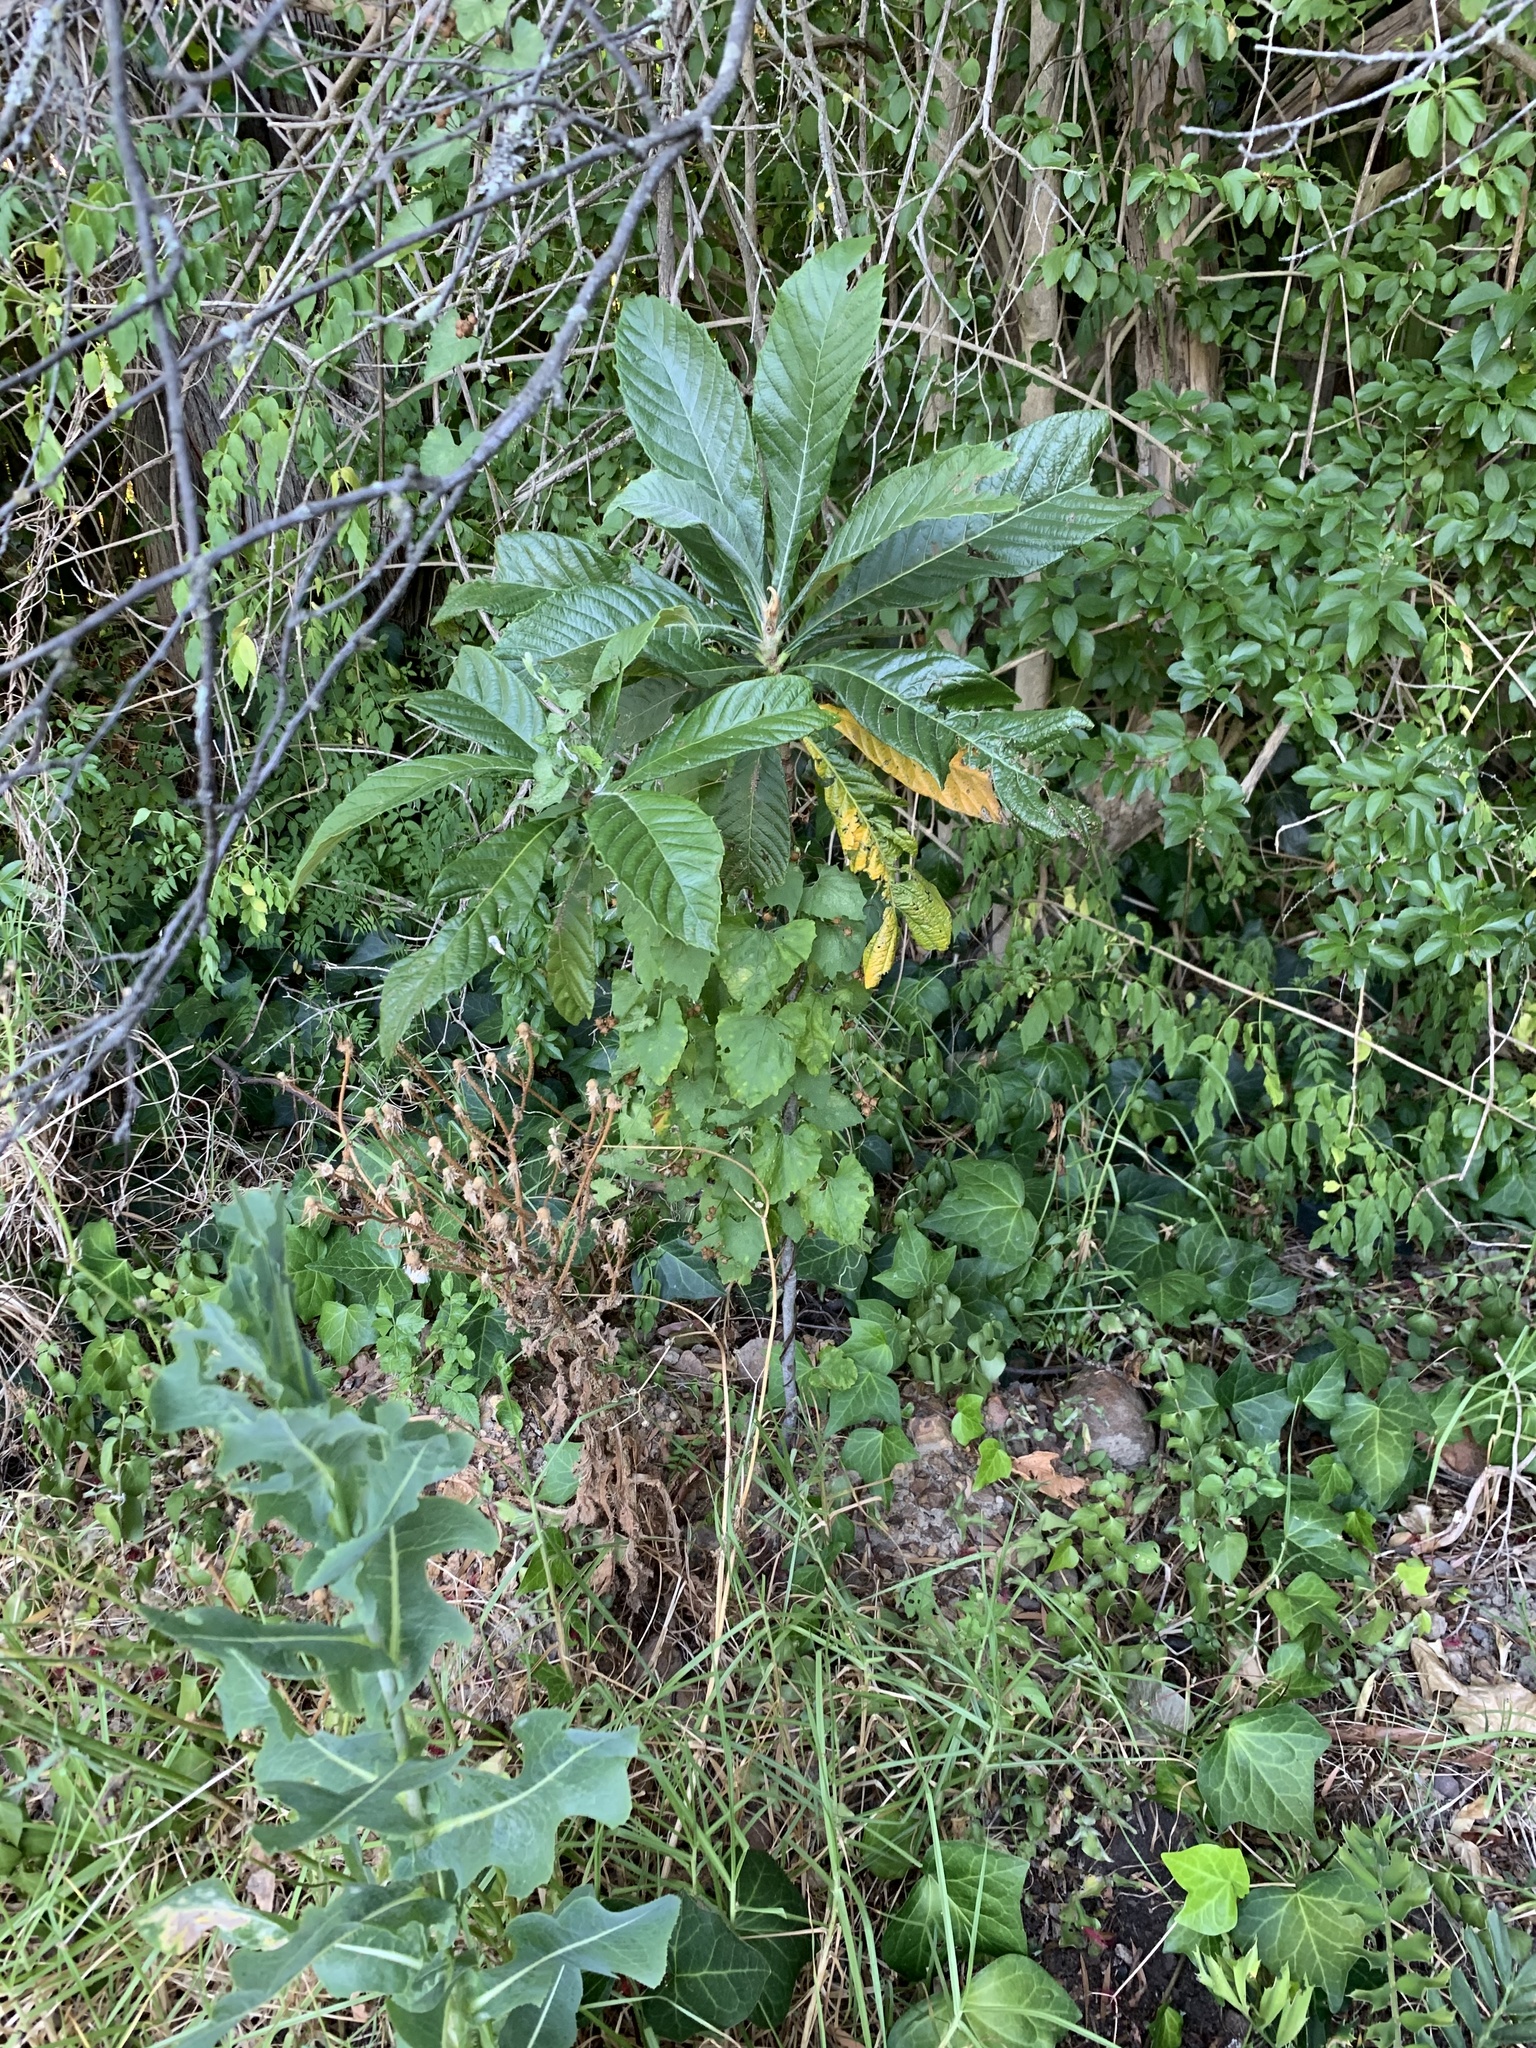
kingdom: Plantae
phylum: Tracheophyta
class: Magnoliopsida
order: Rosales
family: Rosaceae
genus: Rhaphiolepis
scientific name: Rhaphiolepis bibas
